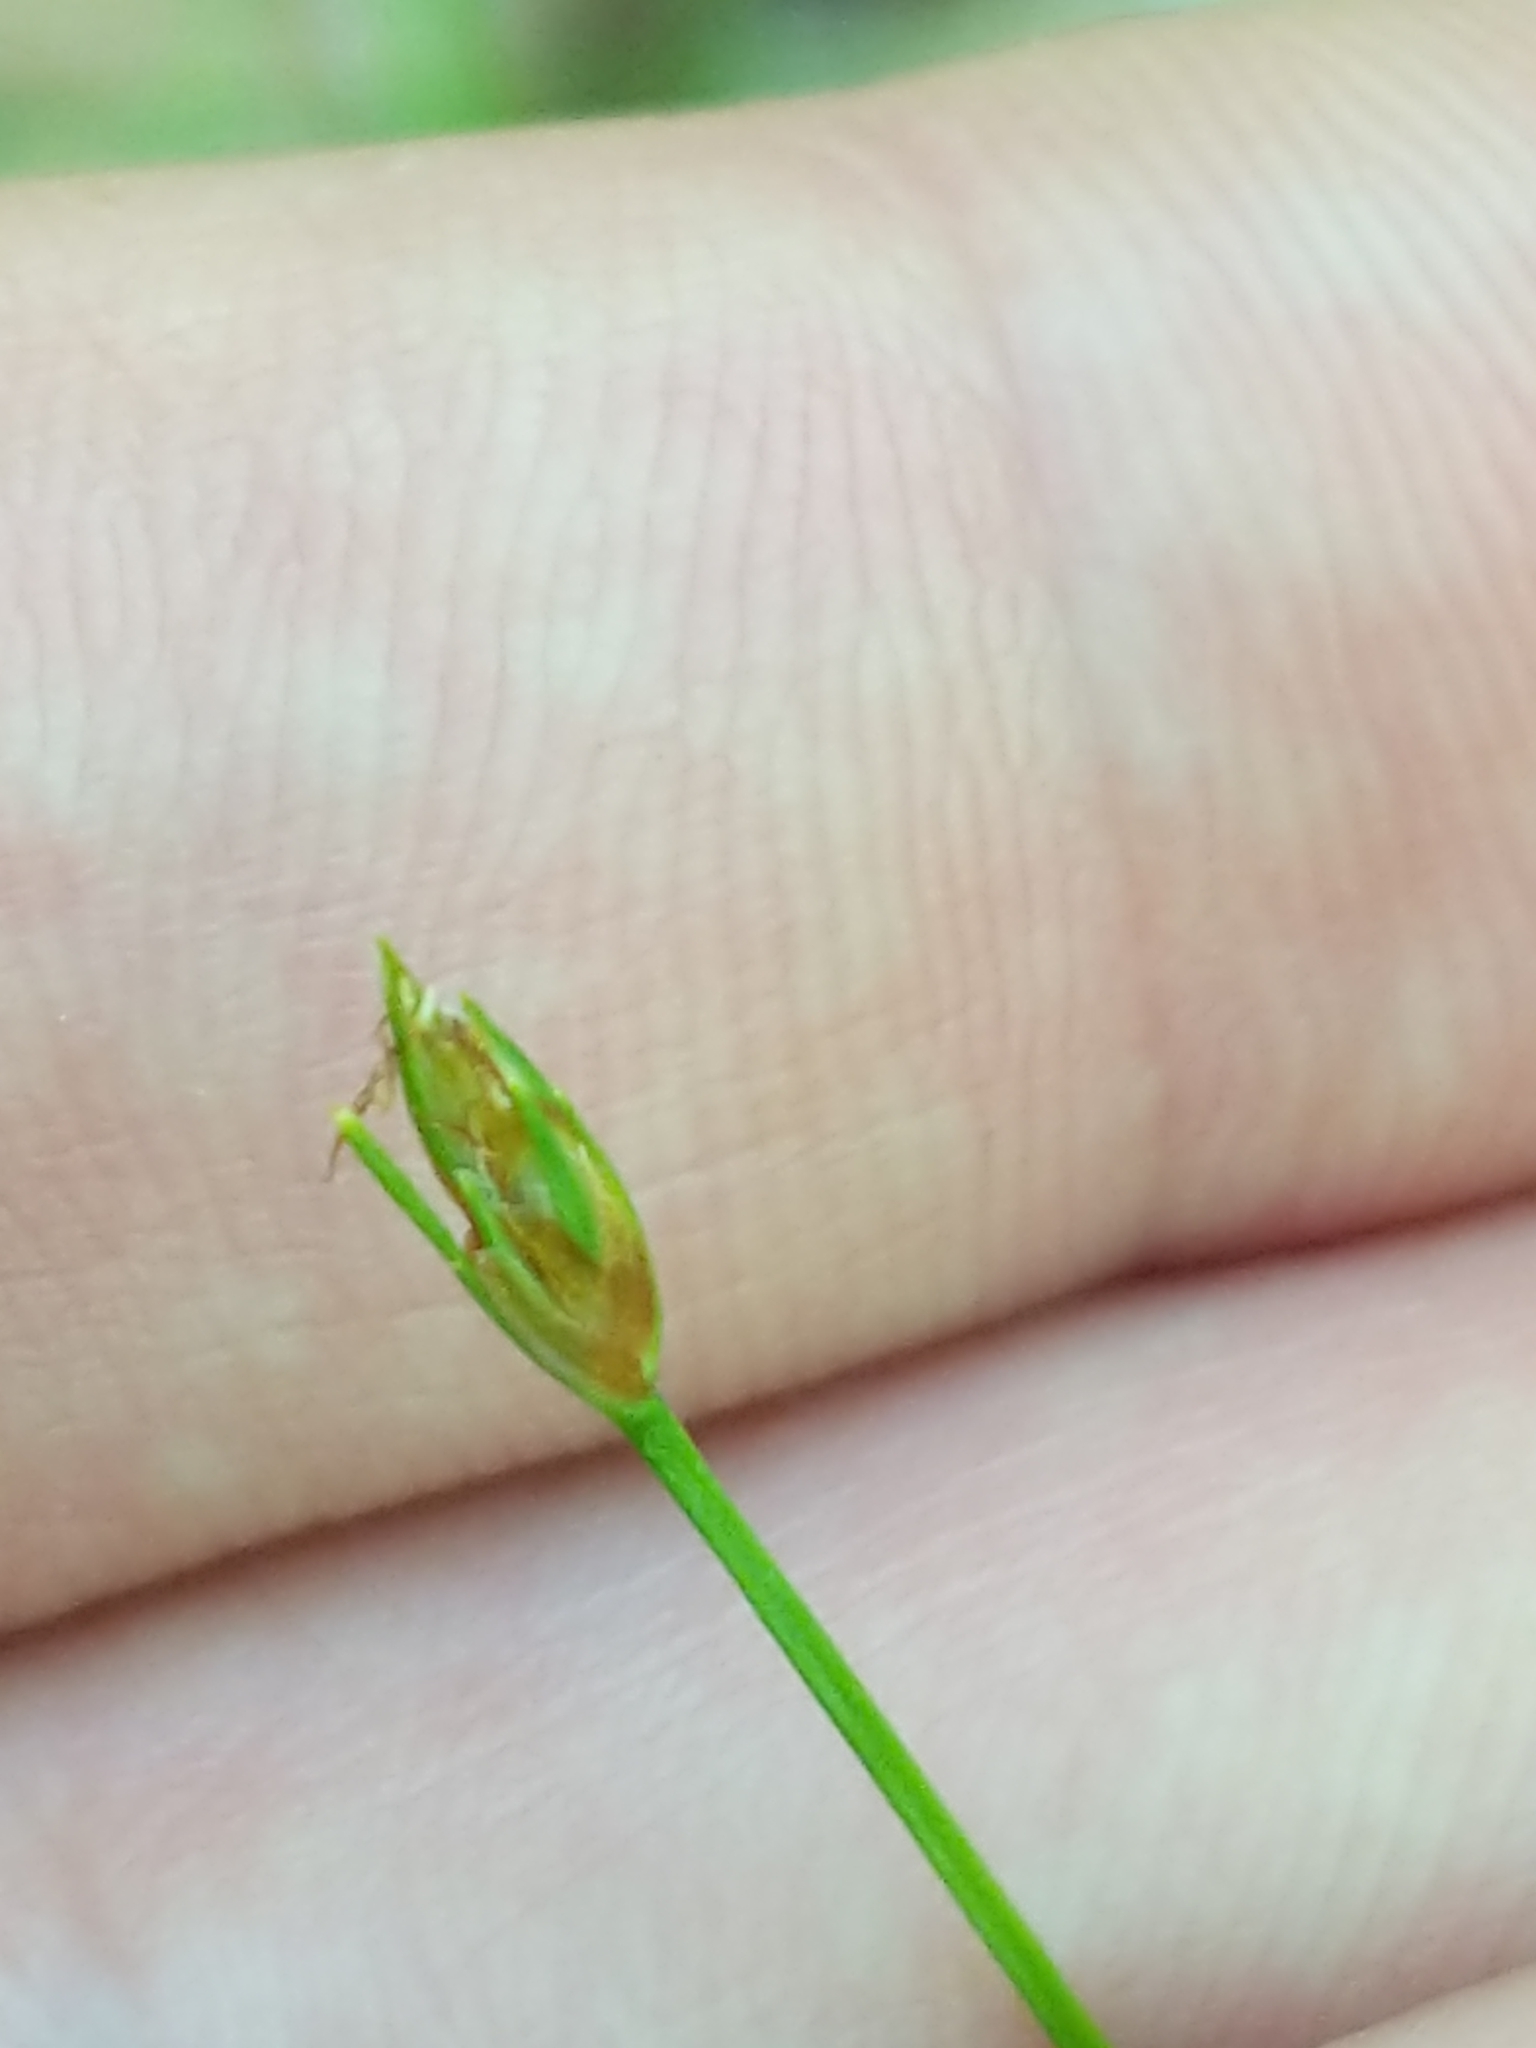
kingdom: Plantae
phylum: Tracheophyta
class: Liliopsida
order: Poales
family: Cyperaceae
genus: Trichophorum
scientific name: Trichophorum planifolium
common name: Bashful bulrush
